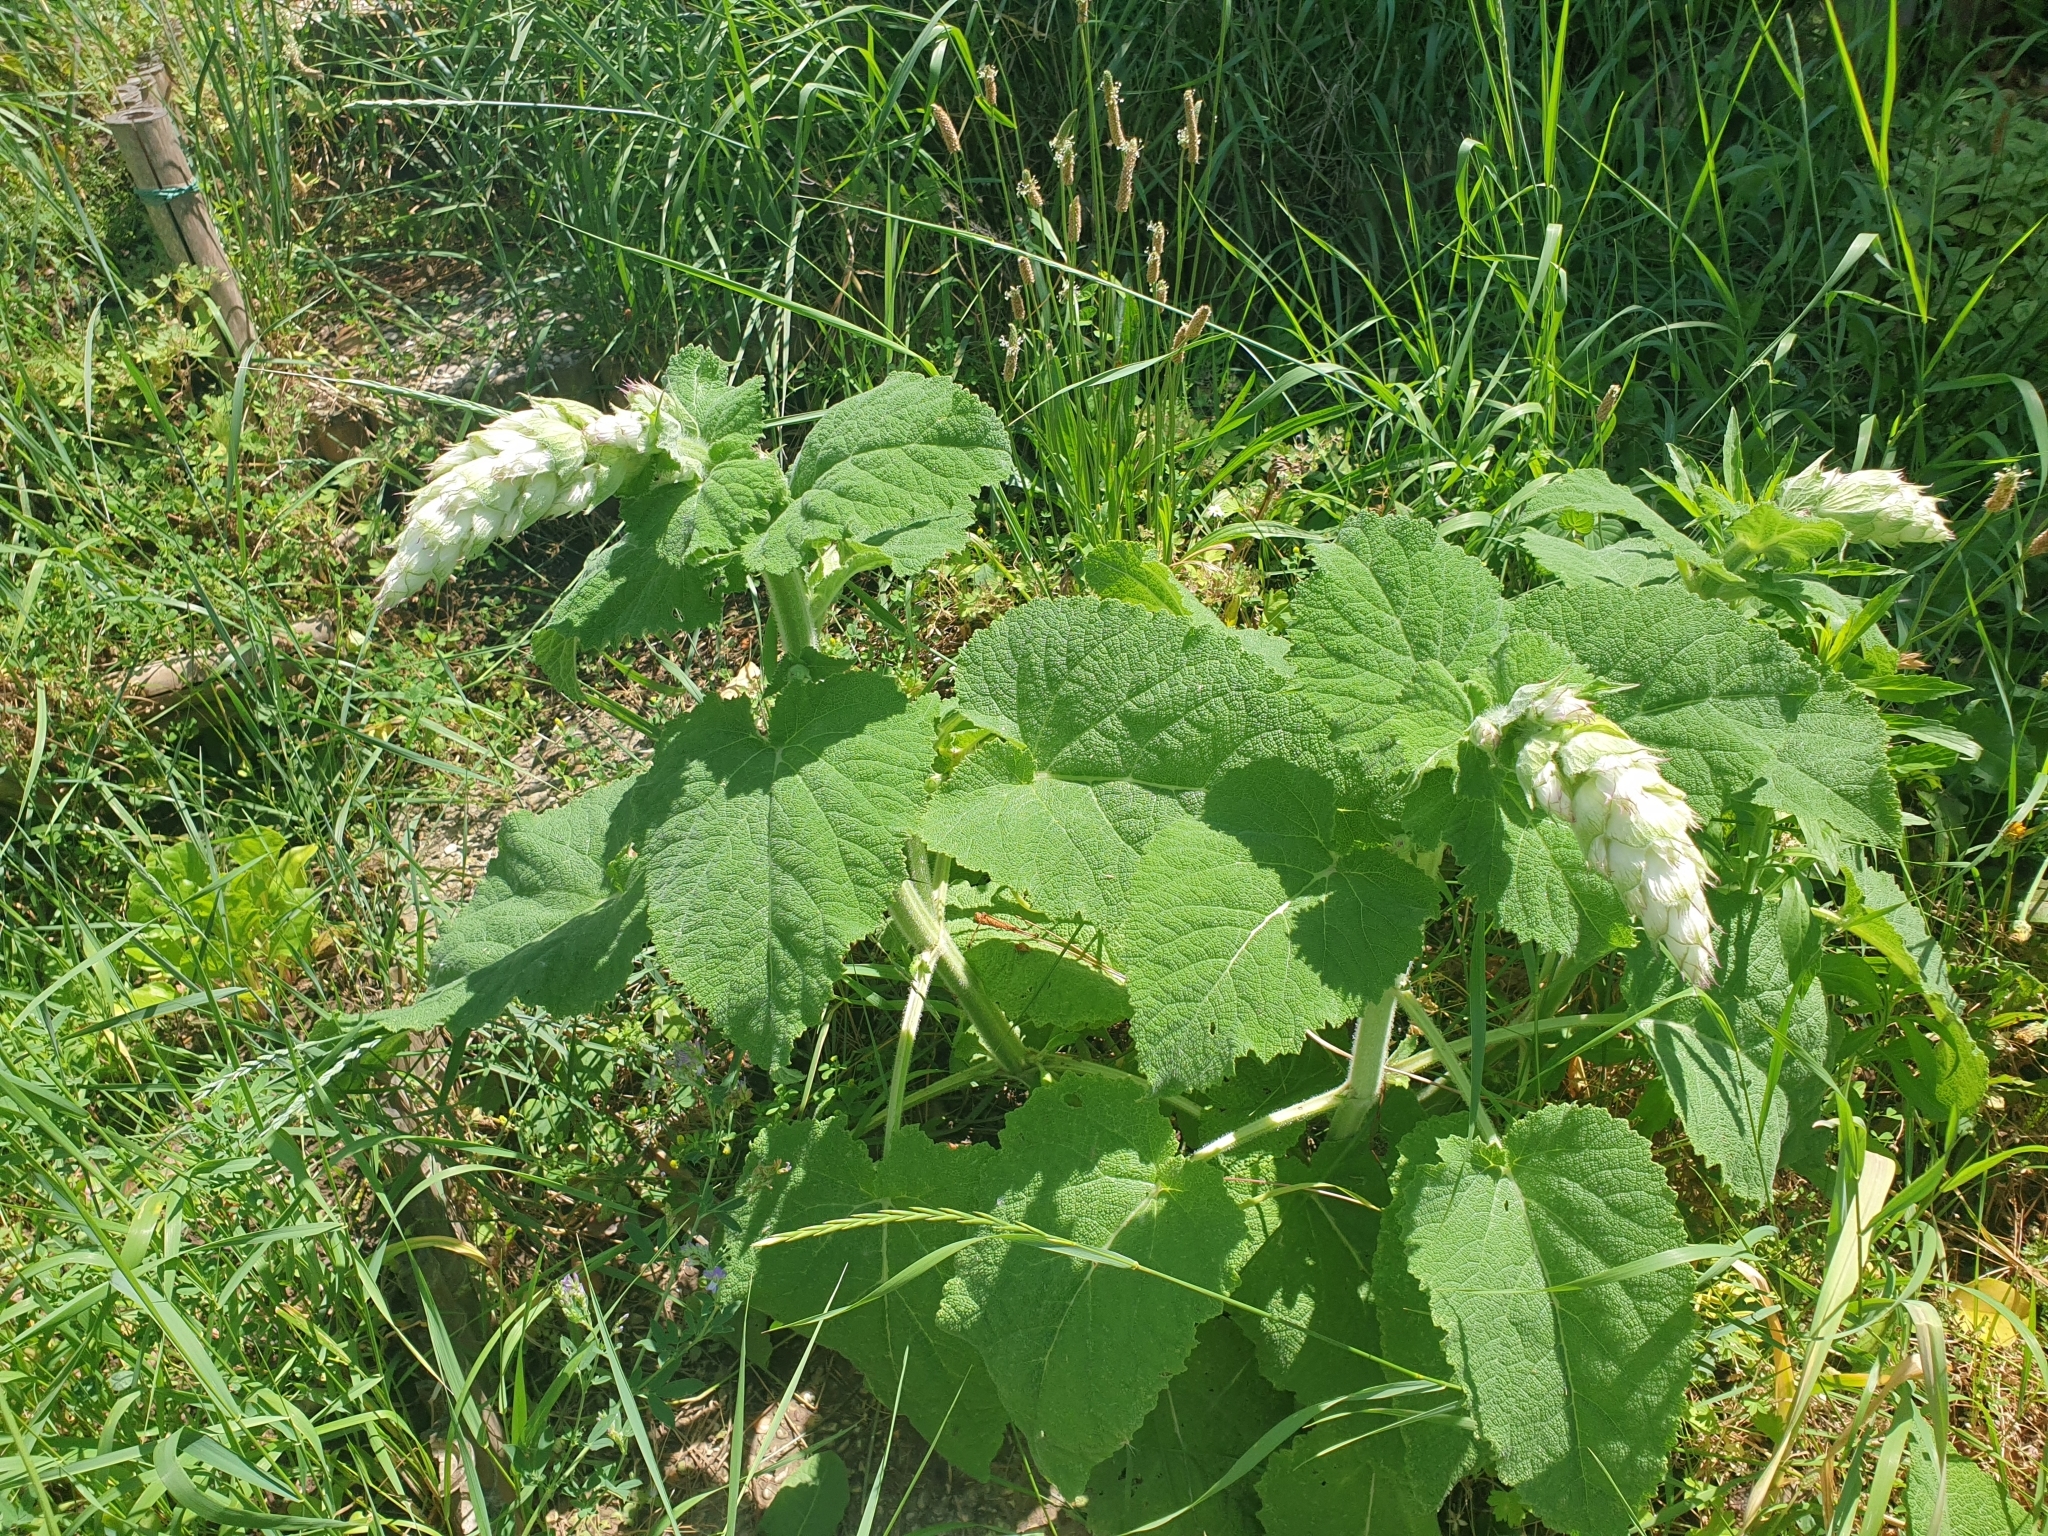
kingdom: Plantae
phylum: Tracheophyta
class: Magnoliopsida
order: Lamiales
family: Lamiaceae
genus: Salvia
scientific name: Salvia sclarea
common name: Clary
